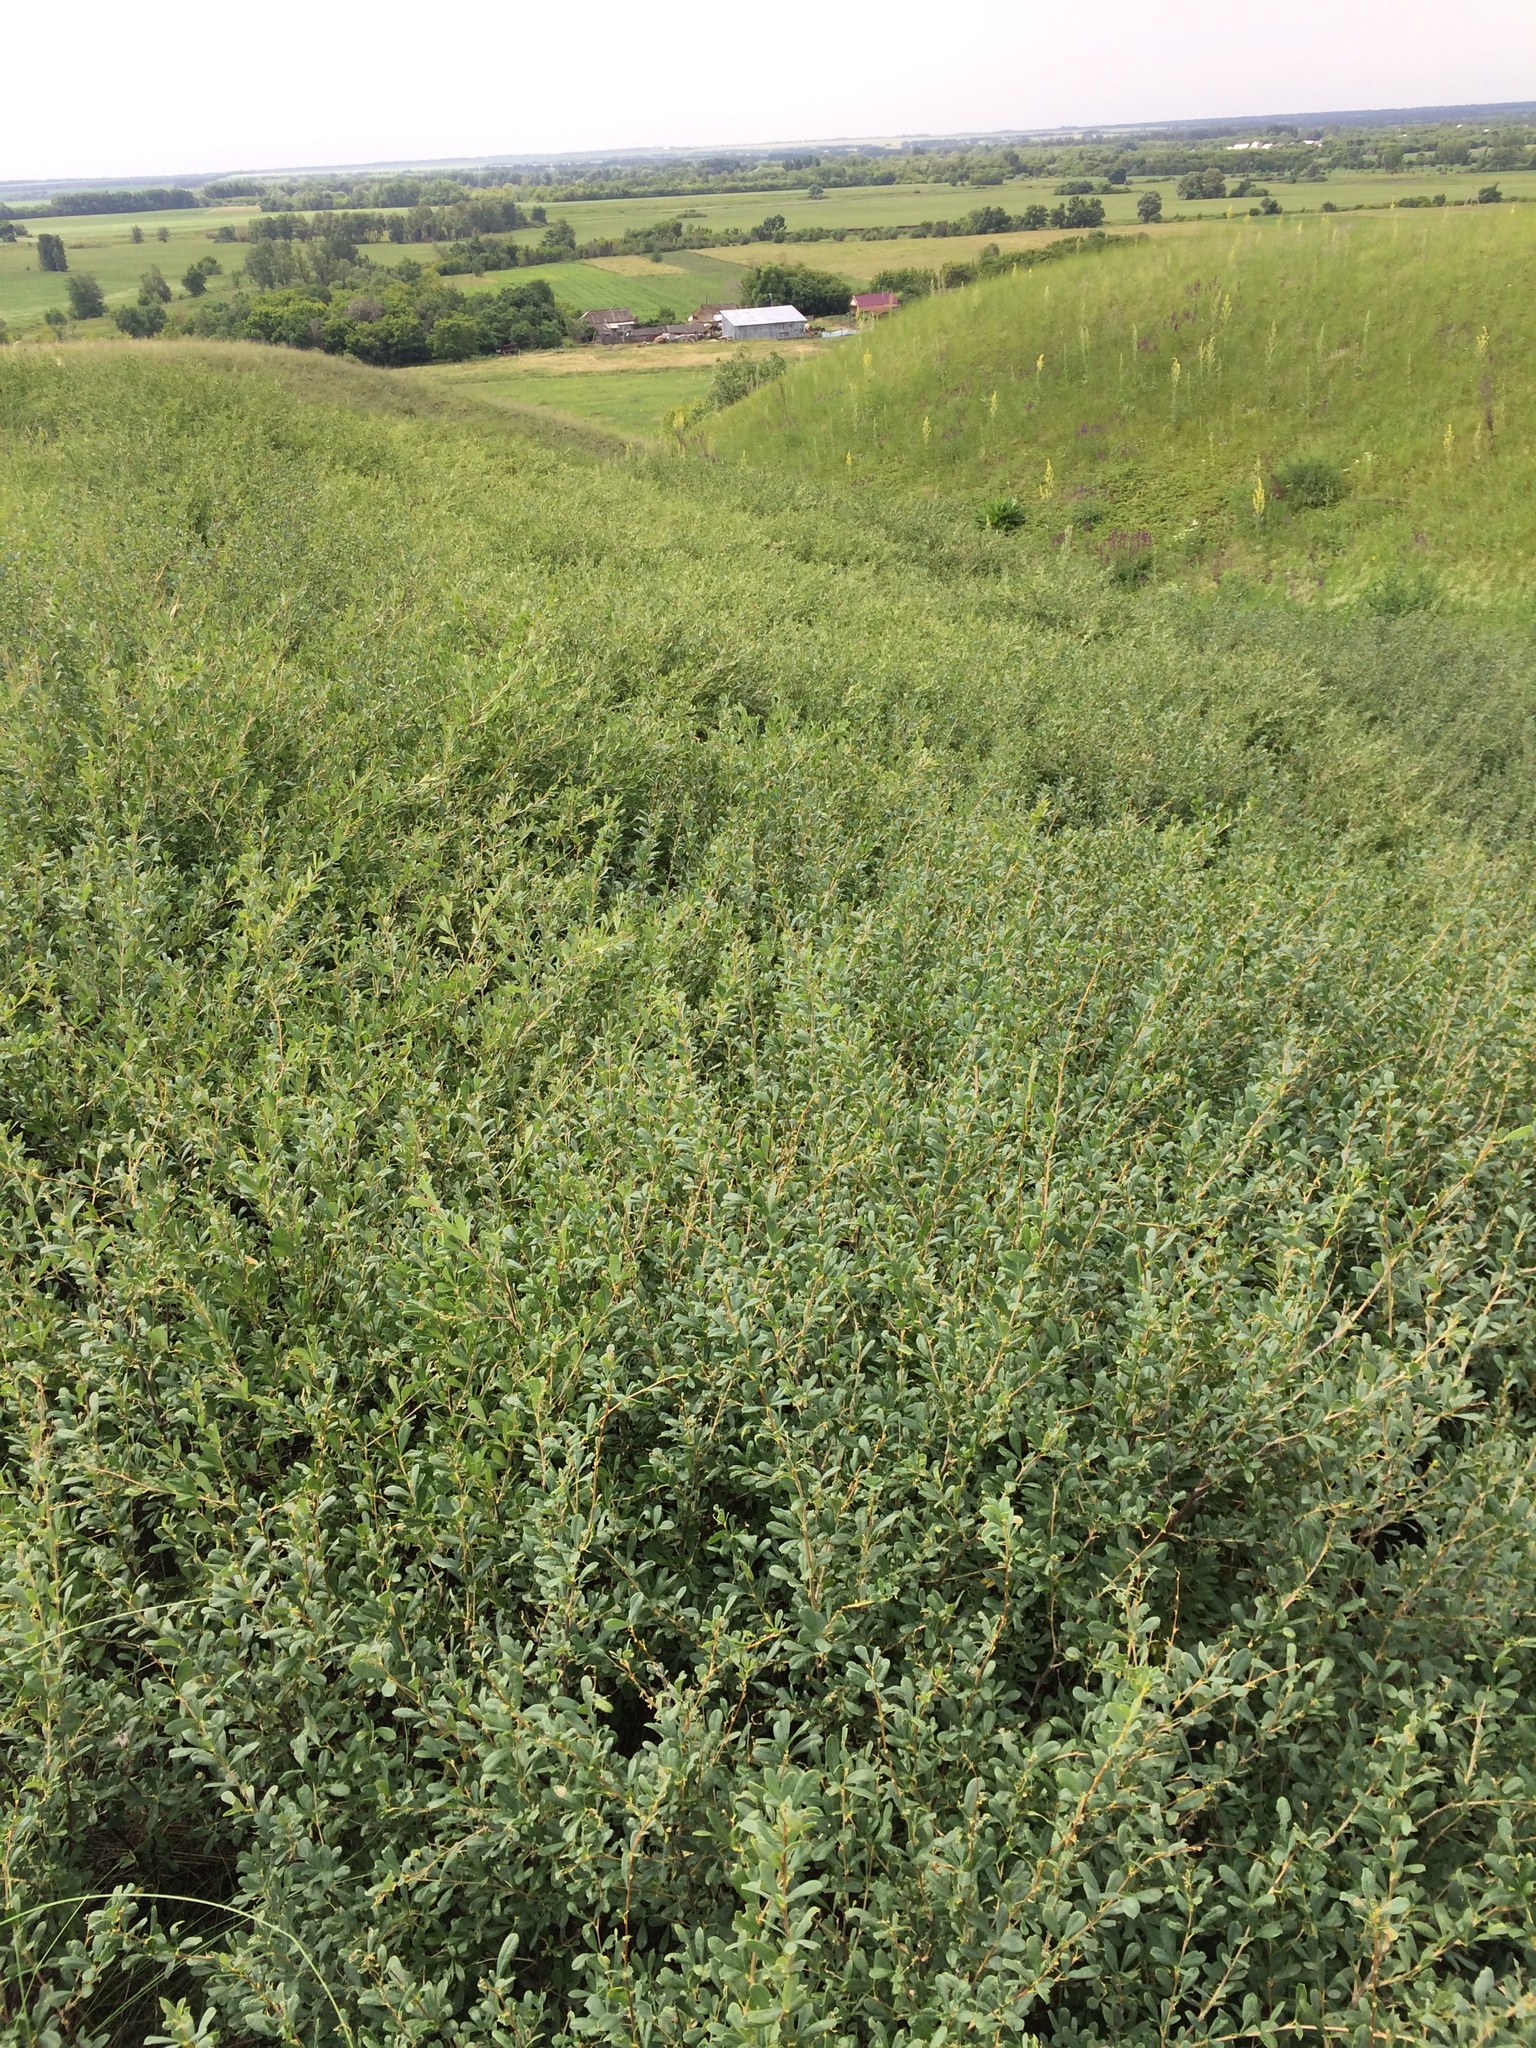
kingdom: Plantae
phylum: Tracheophyta
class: Magnoliopsida
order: Fabales
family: Fabaceae
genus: Caragana
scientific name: Caragana frutex
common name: Russian peashrub
